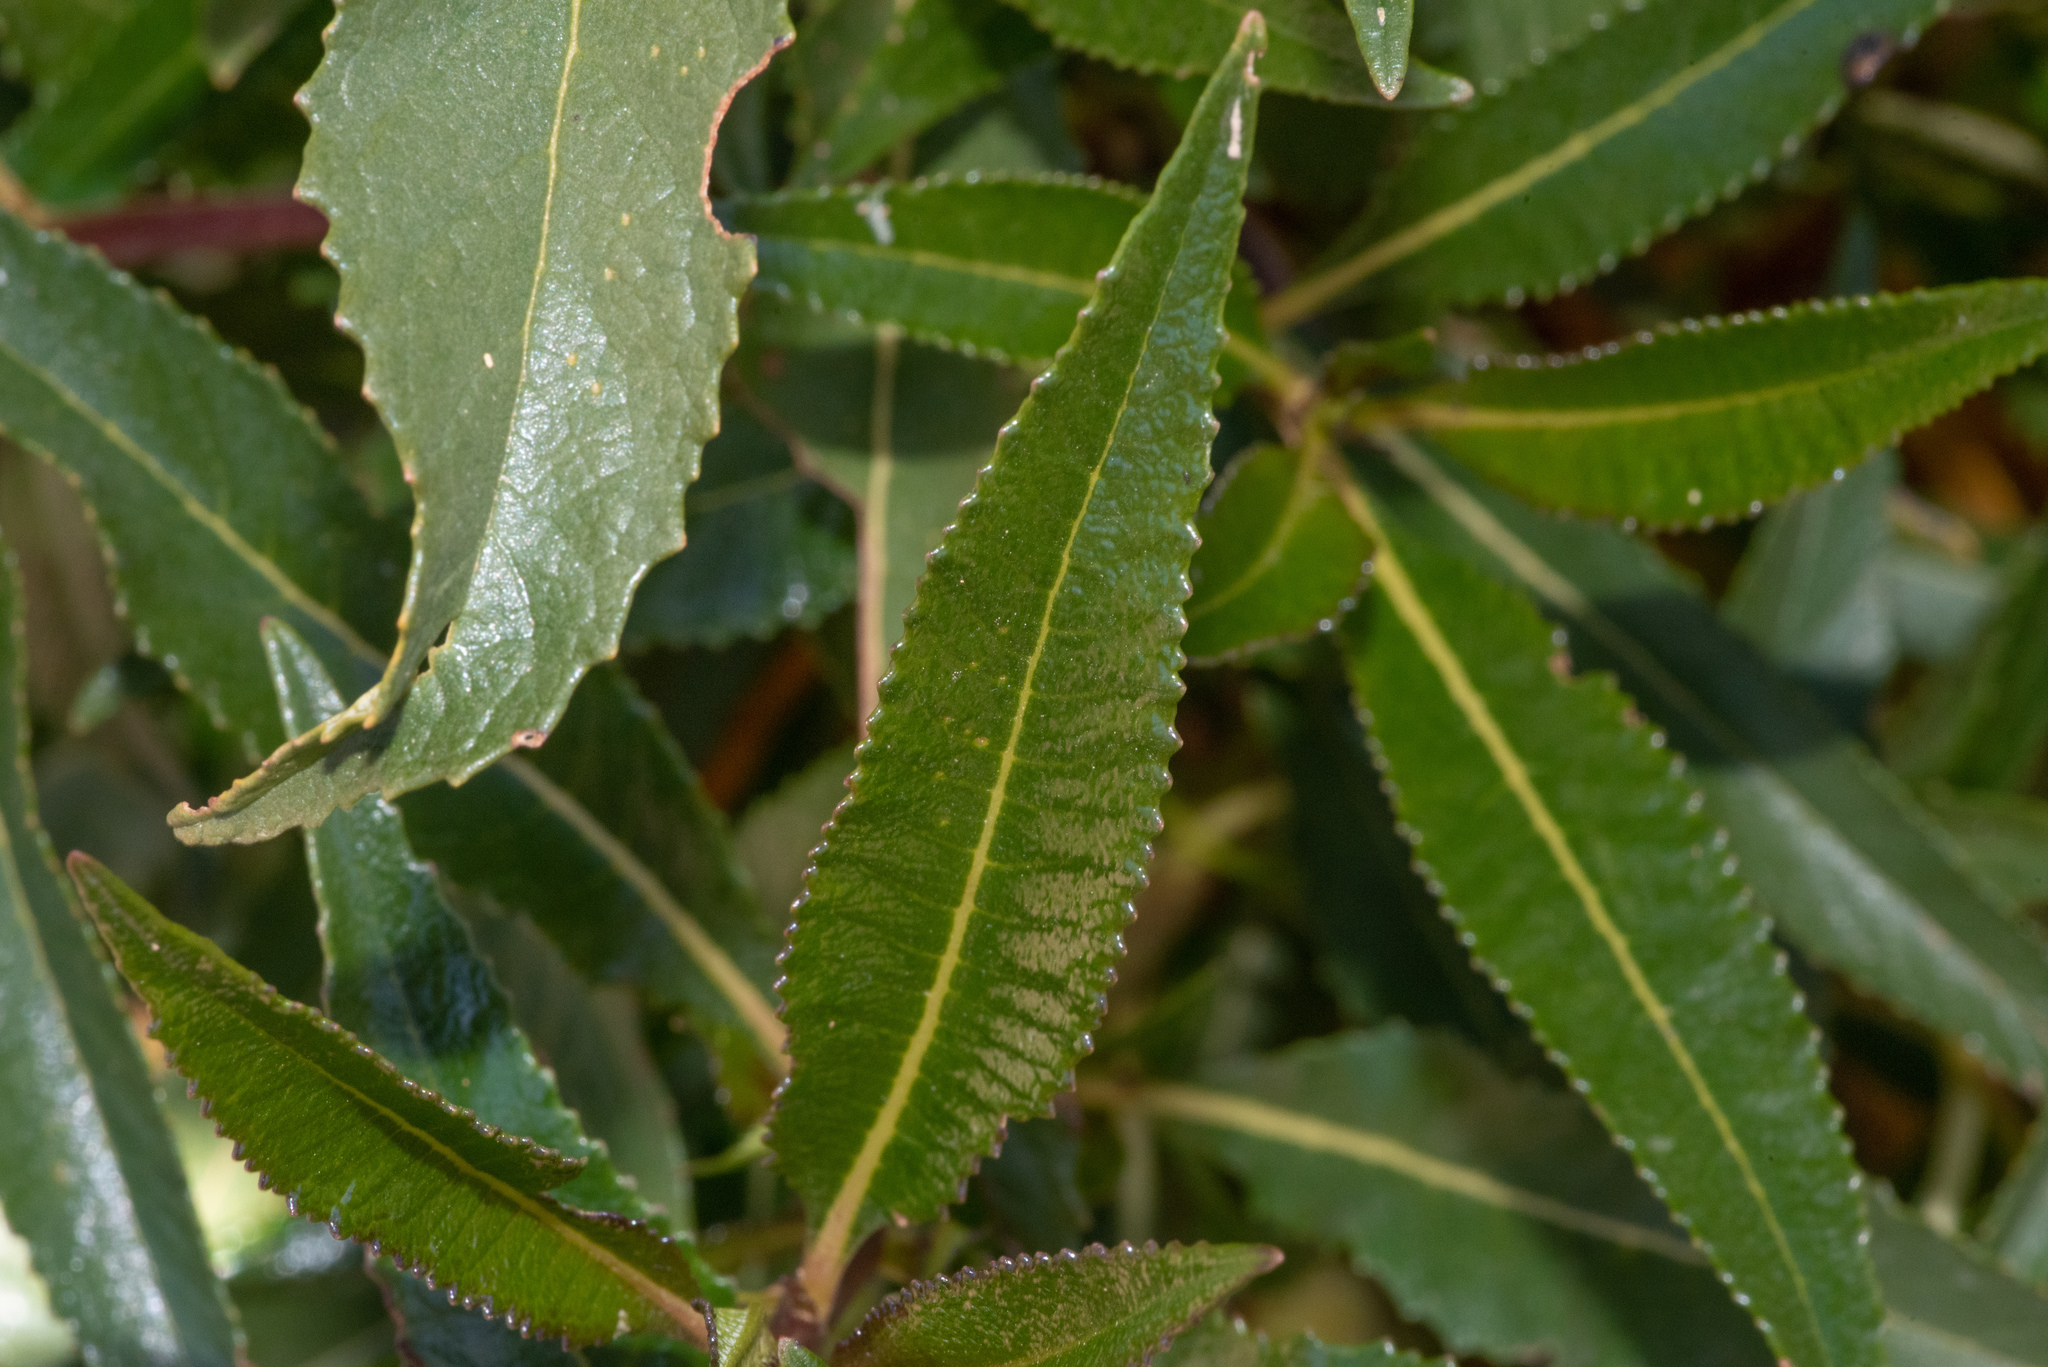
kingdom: Plantae
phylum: Tracheophyta
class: Magnoliopsida
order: Boraginales
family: Namaceae
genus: Eriodictyon
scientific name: Eriodictyon californicum
